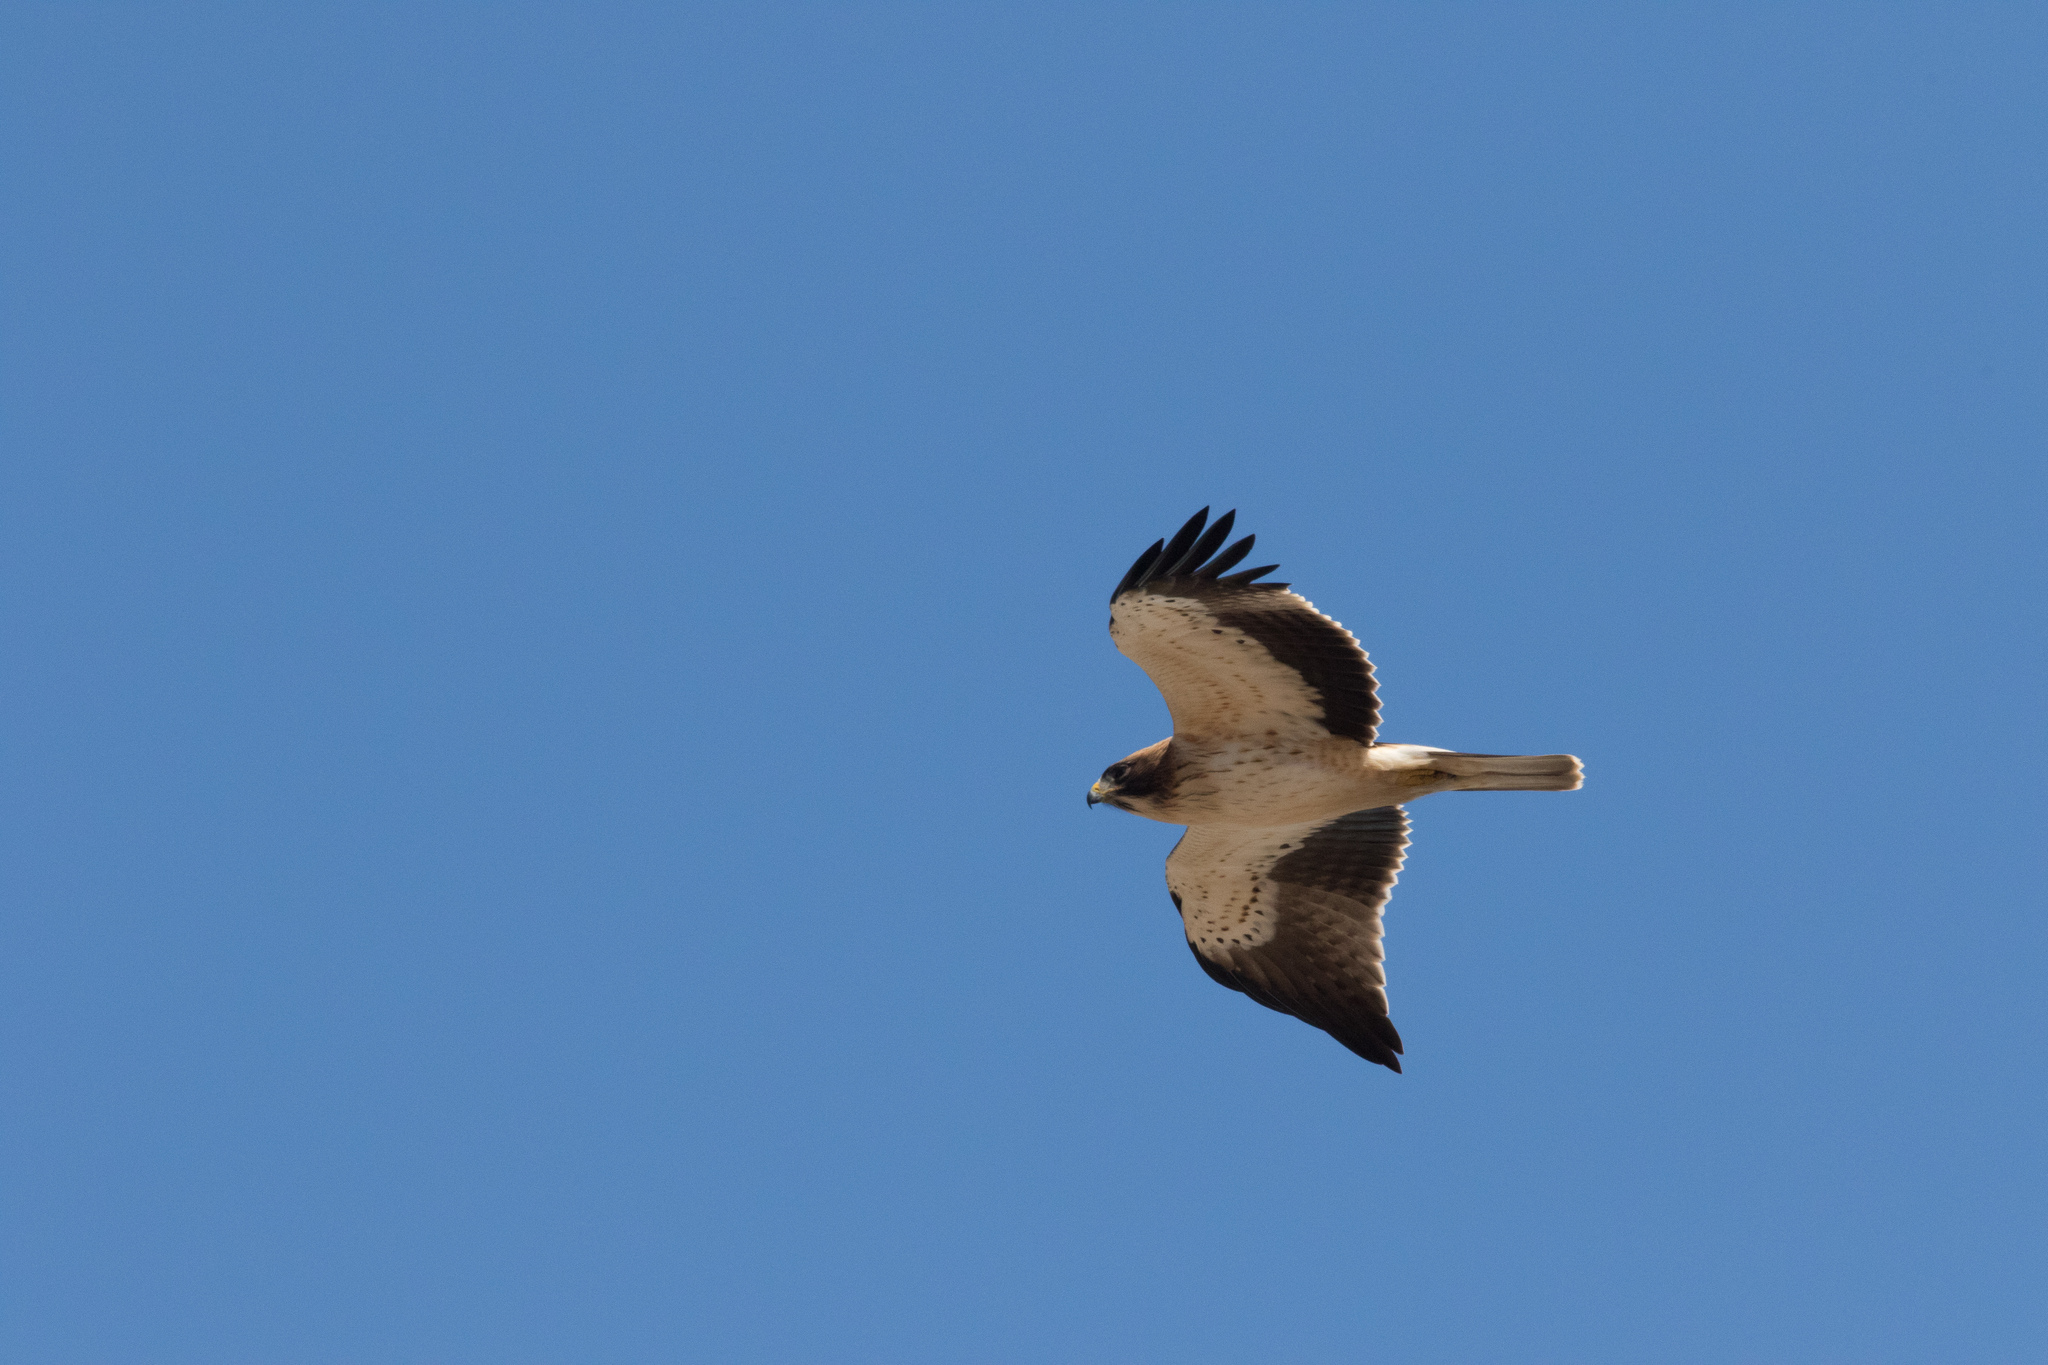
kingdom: Animalia
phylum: Chordata
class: Aves
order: Accipitriformes
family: Accipitridae
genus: Hieraaetus
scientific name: Hieraaetus pennatus
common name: Booted eagle
